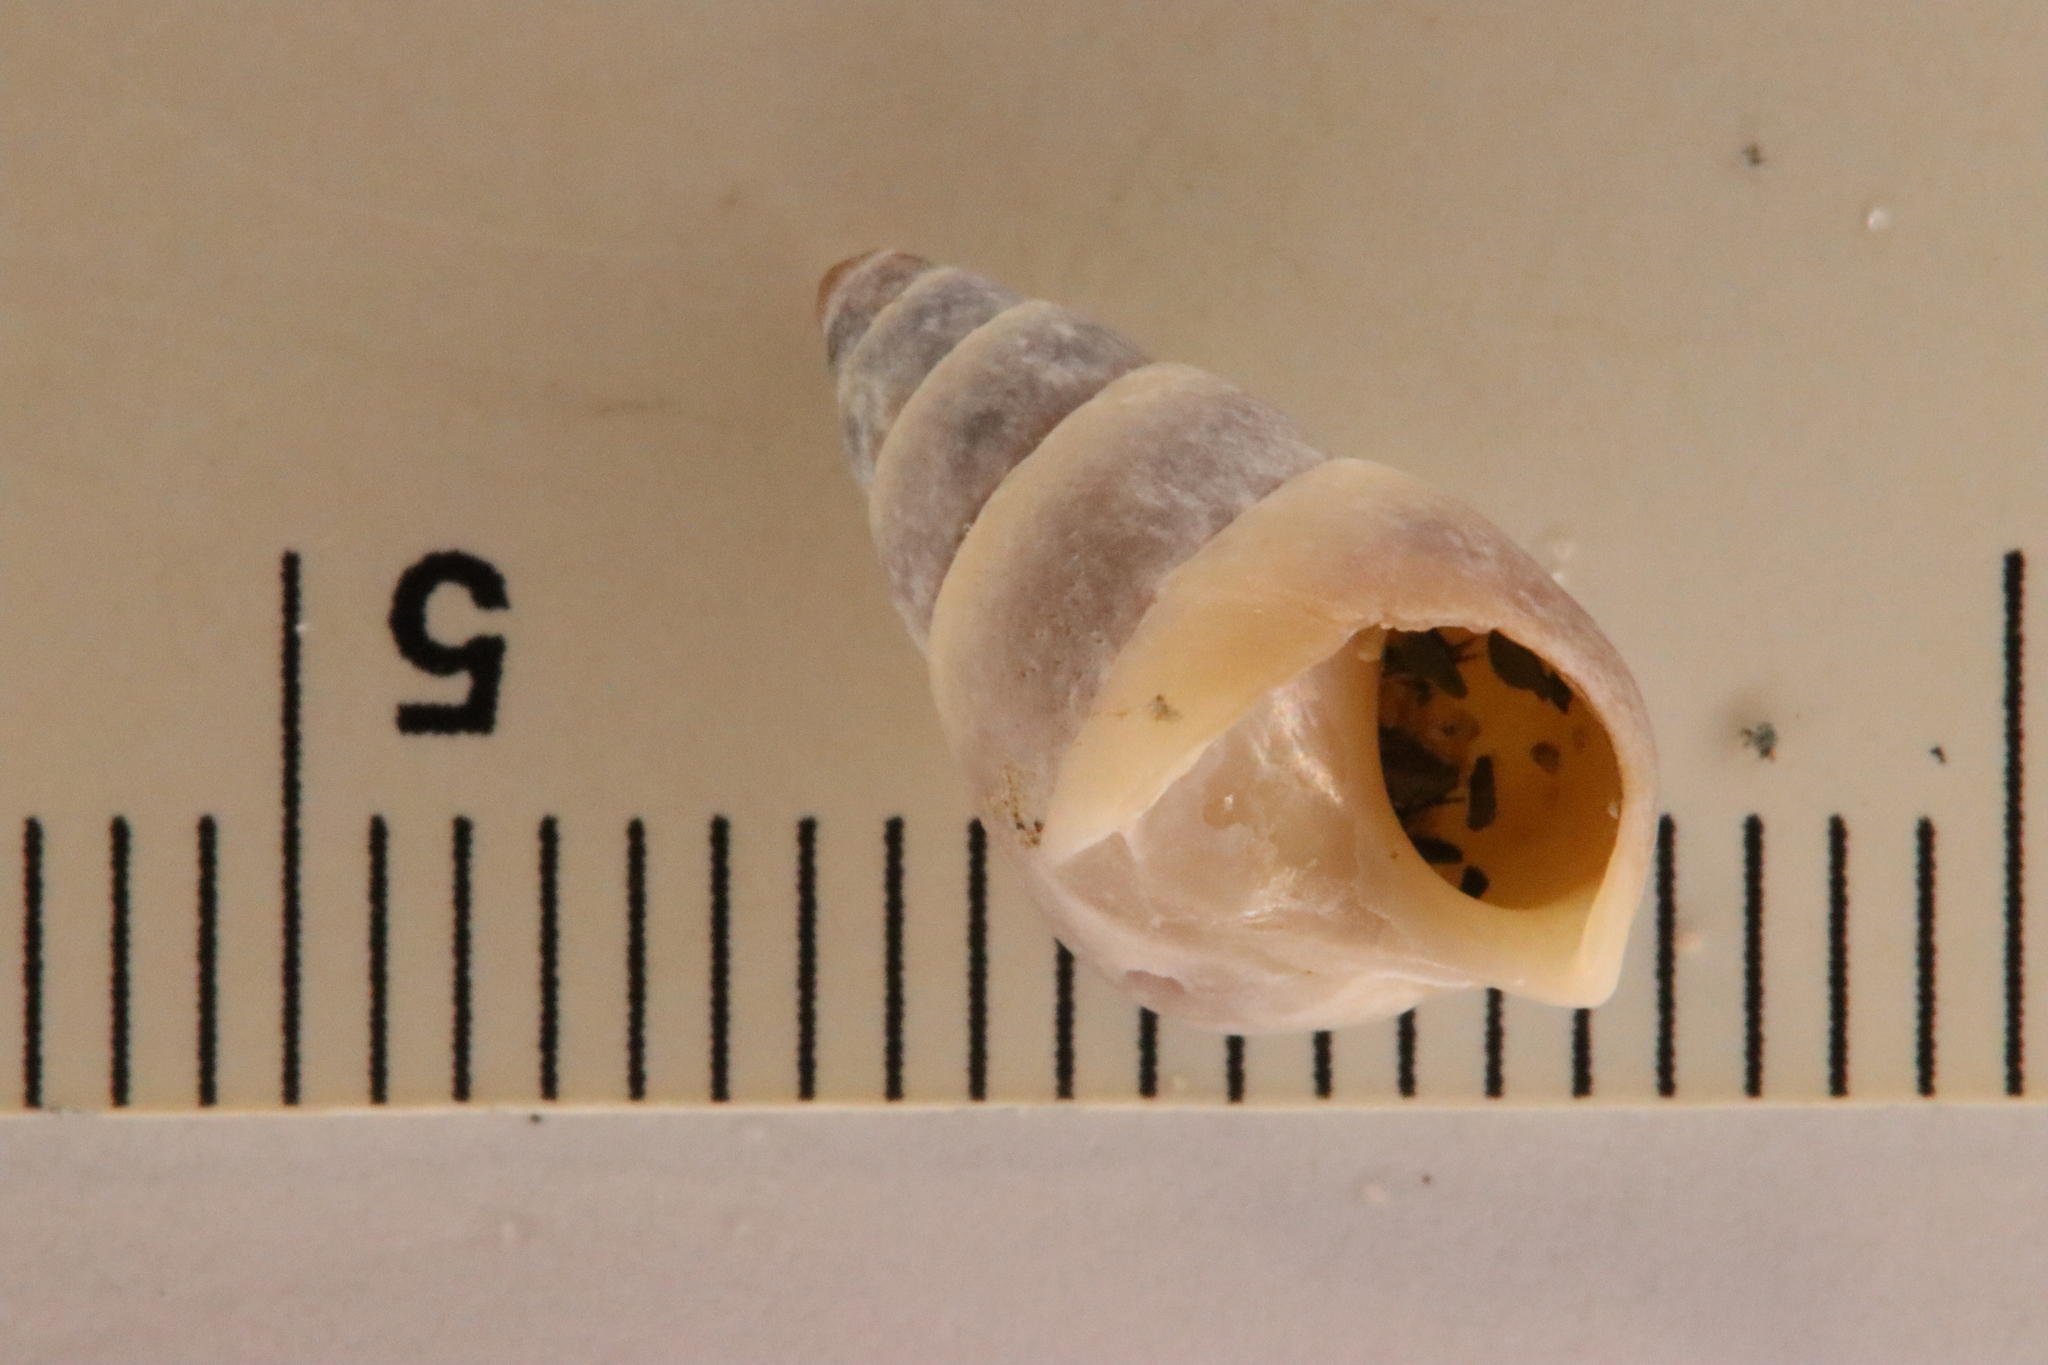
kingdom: Animalia
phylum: Mollusca
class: Gastropoda
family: Pleuroceridae
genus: Elimia
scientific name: Elimia livescens
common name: Liver elimia
